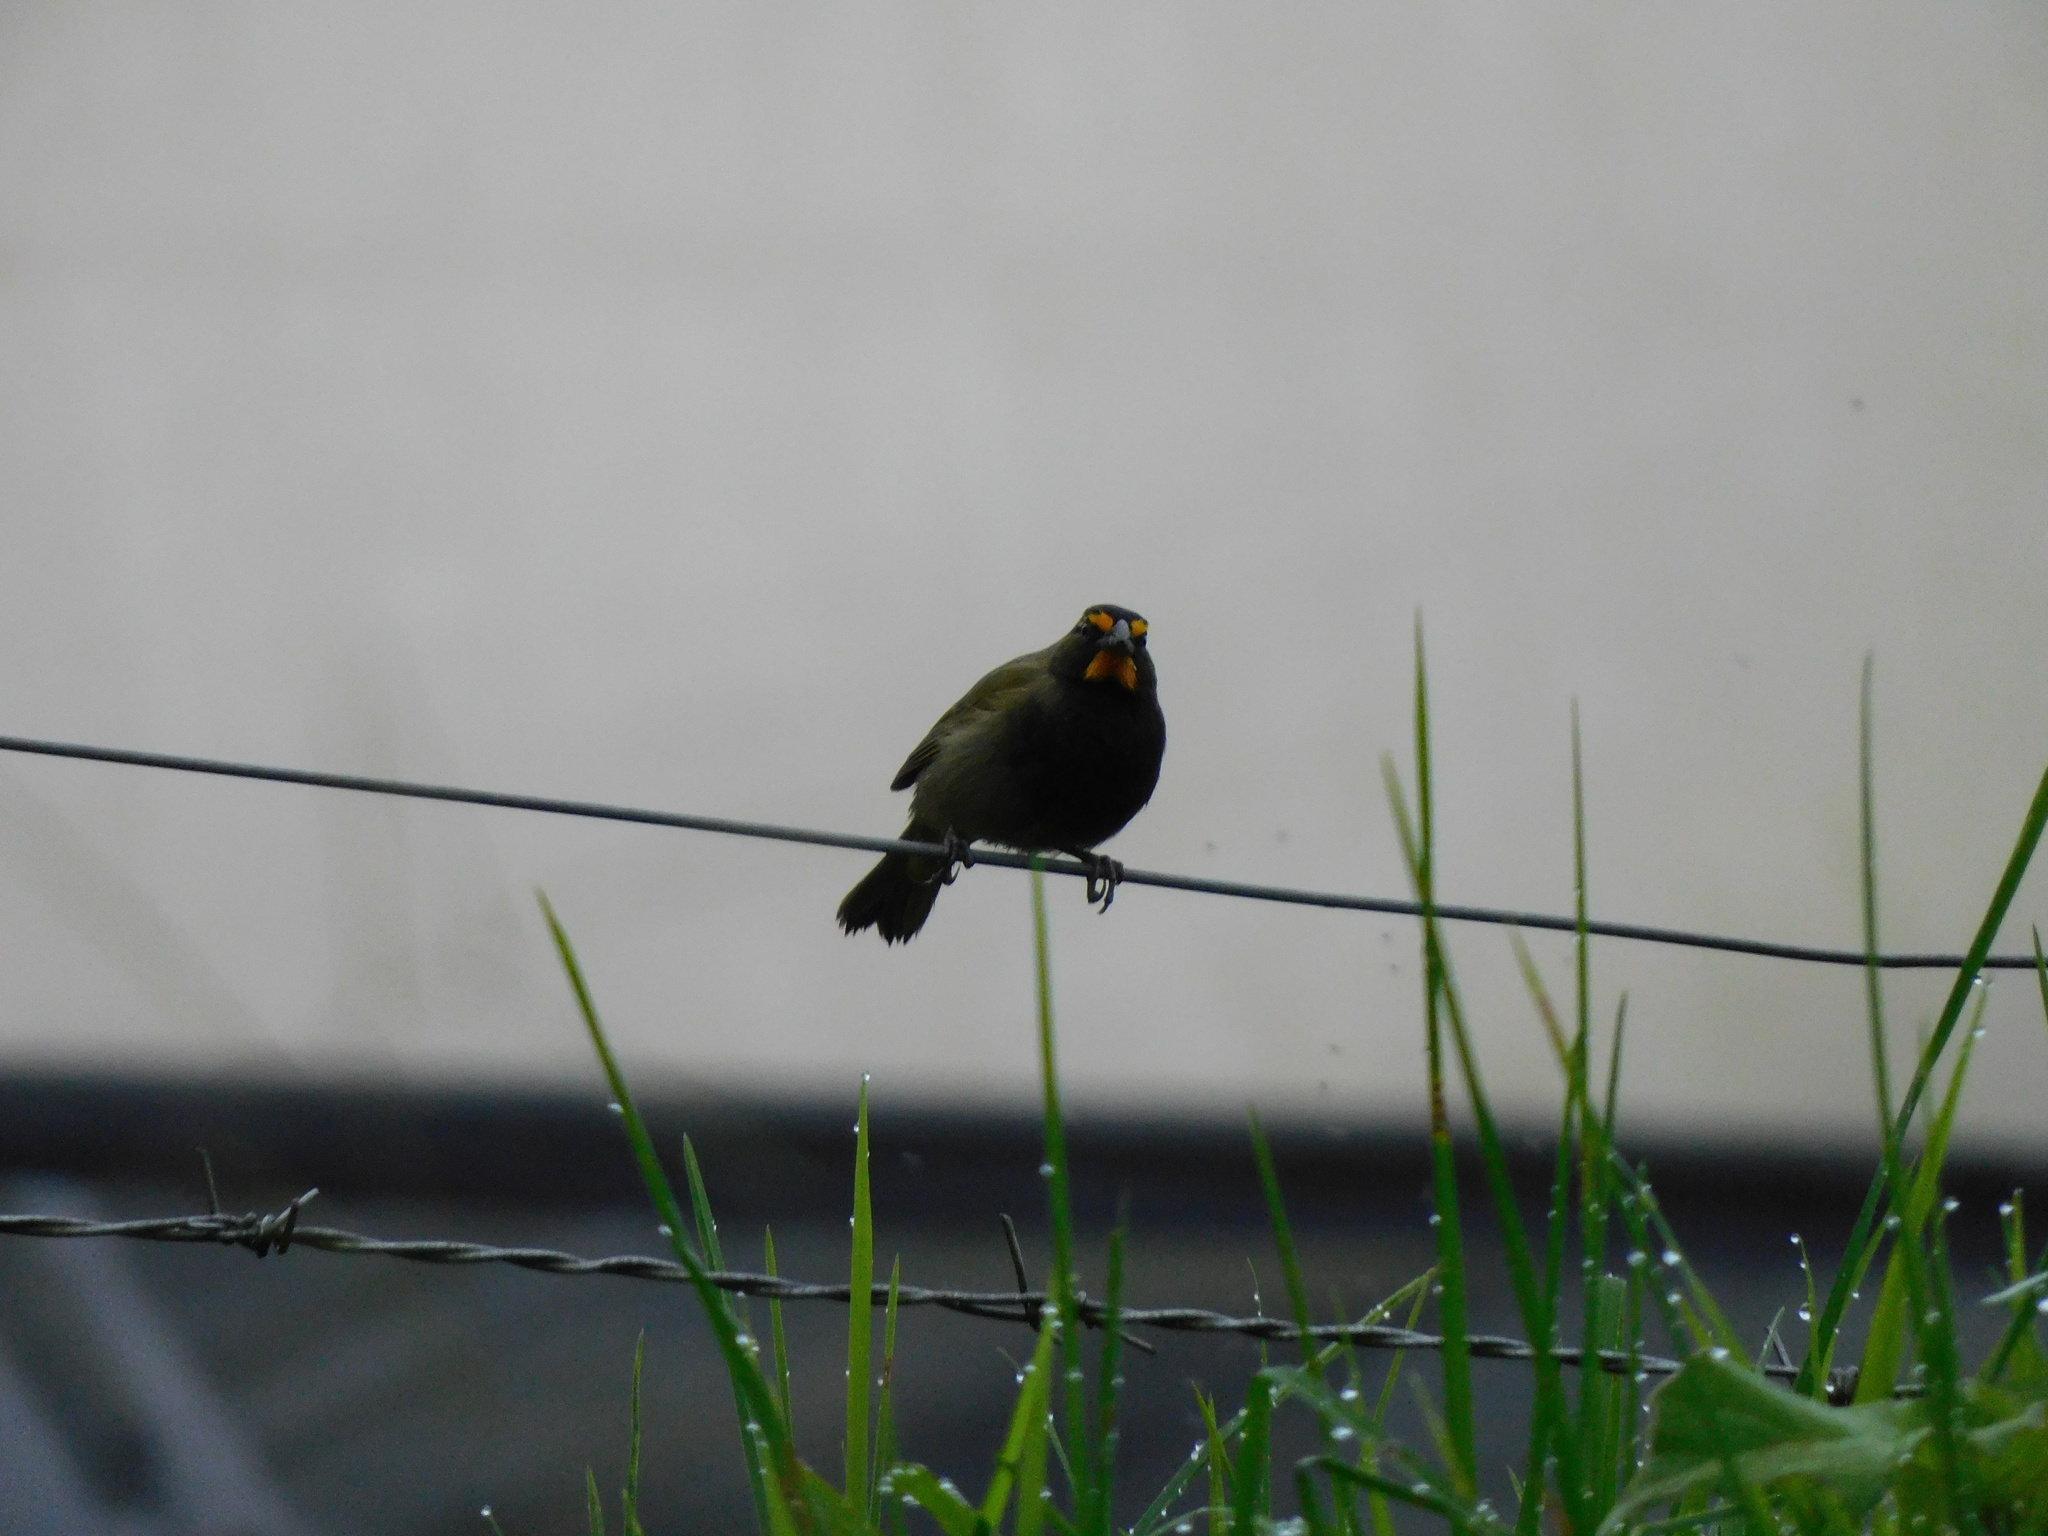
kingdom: Animalia
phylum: Chordata
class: Aves
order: Passeriformes
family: Thraupidae
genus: Tiaris
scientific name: Tiaris olivaceus
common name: Yellow-faced grassquit
